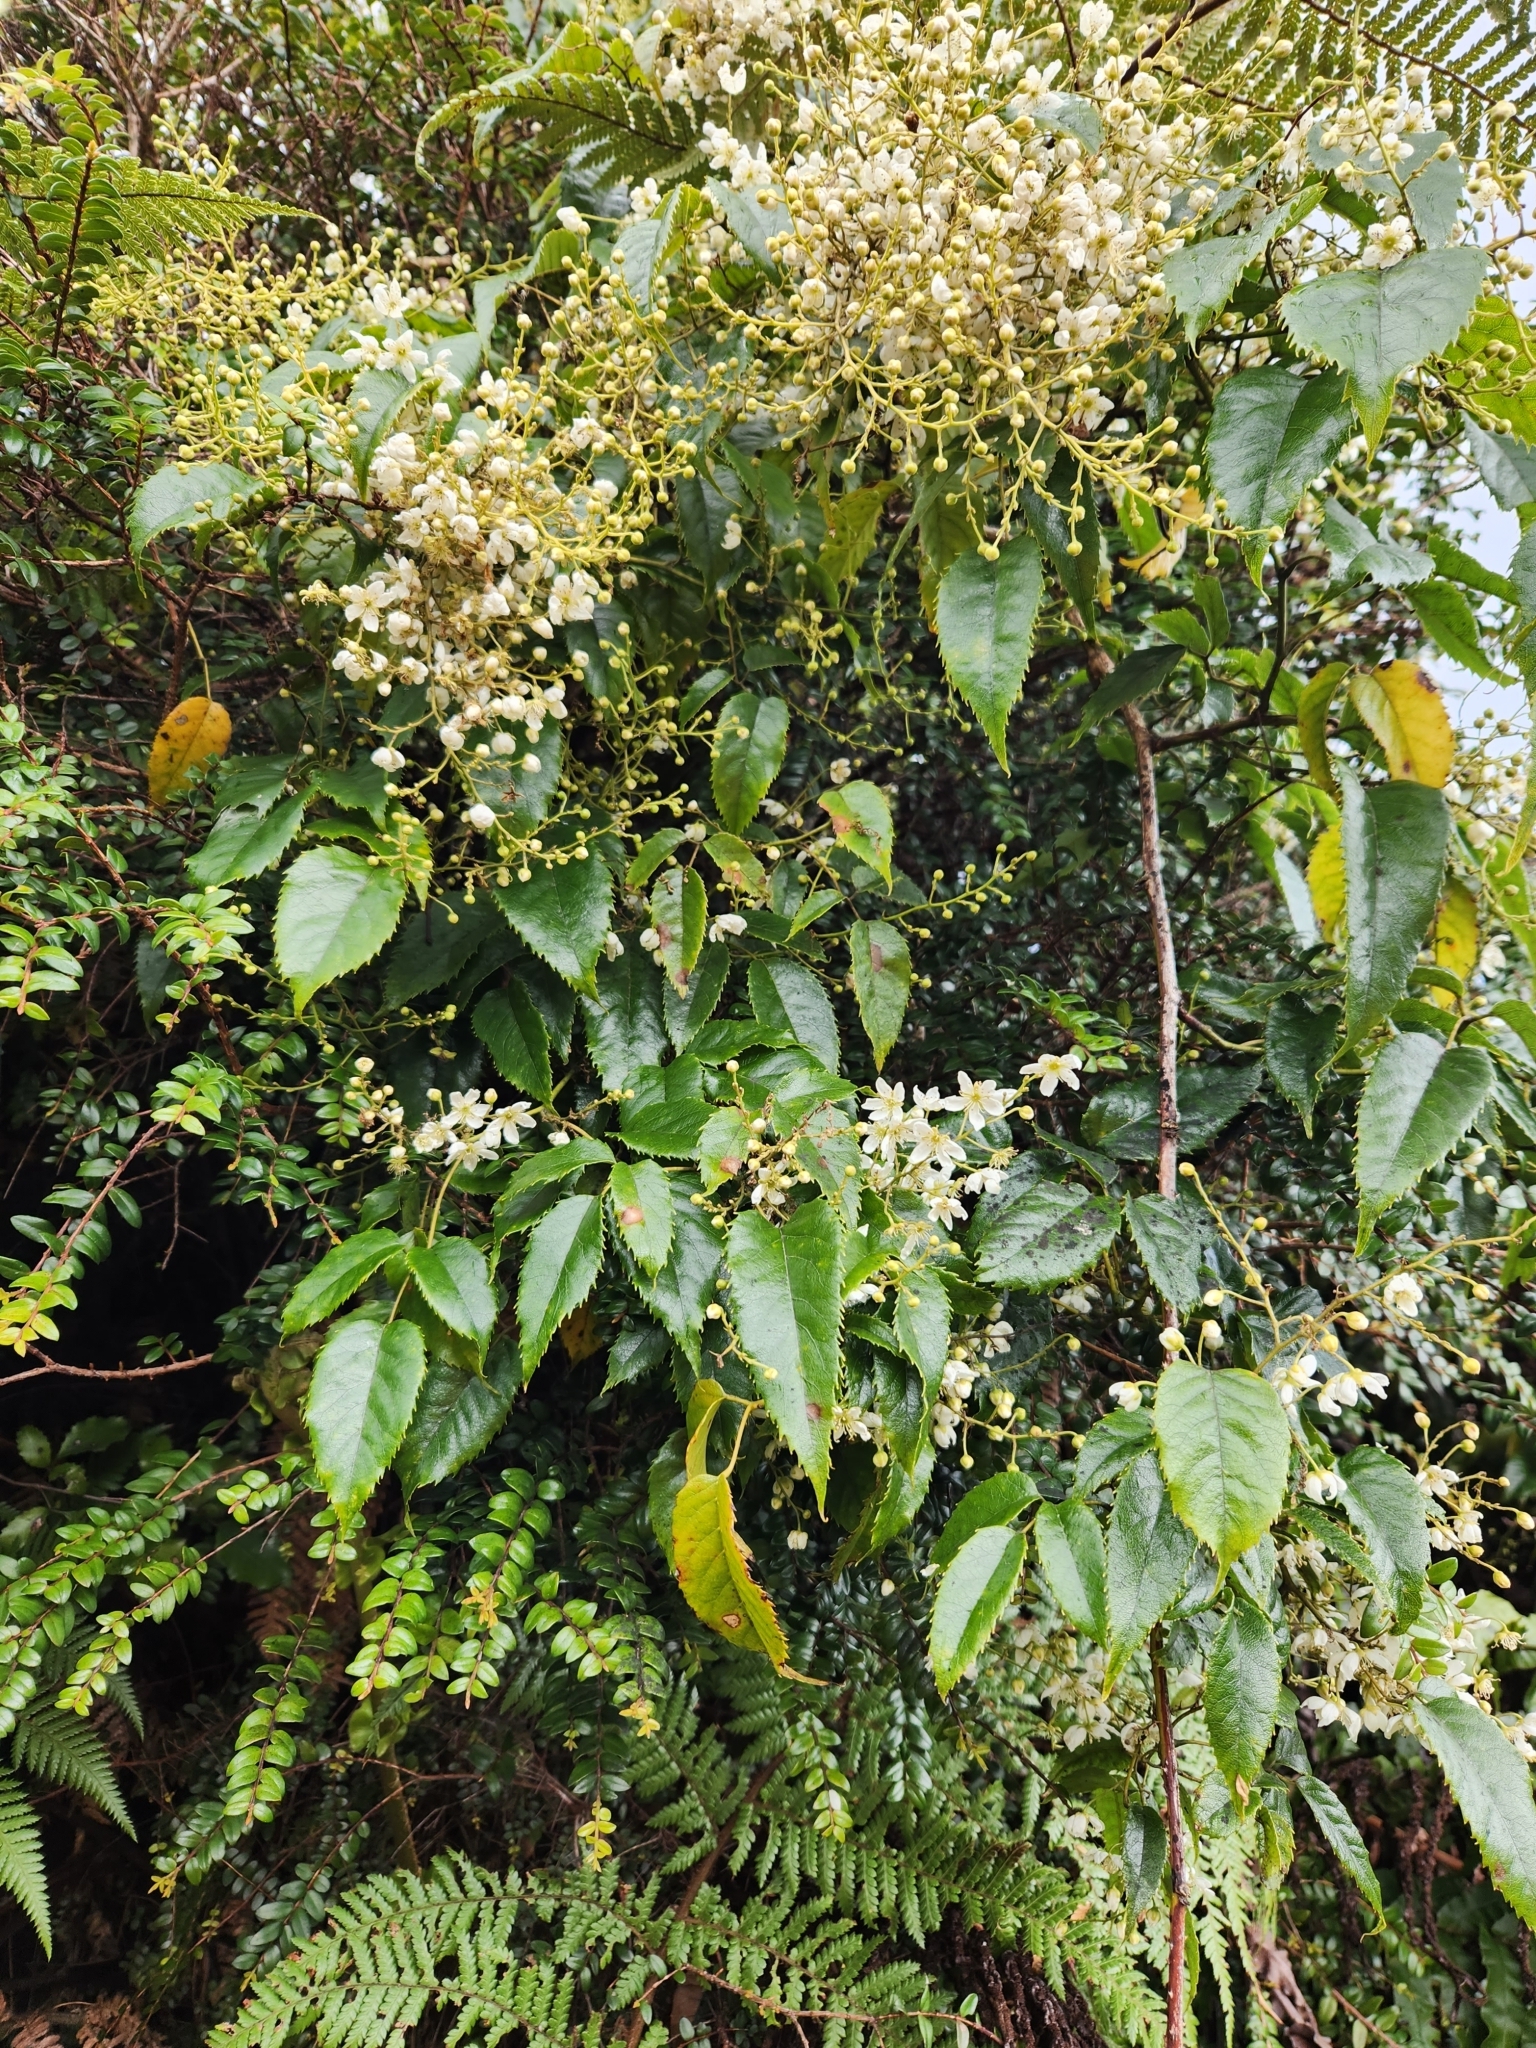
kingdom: Plantae
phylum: Tracheophyta
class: Magnoliopsida
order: Rosales
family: Rosaceae
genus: Rubus
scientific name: Rubus cissoides
